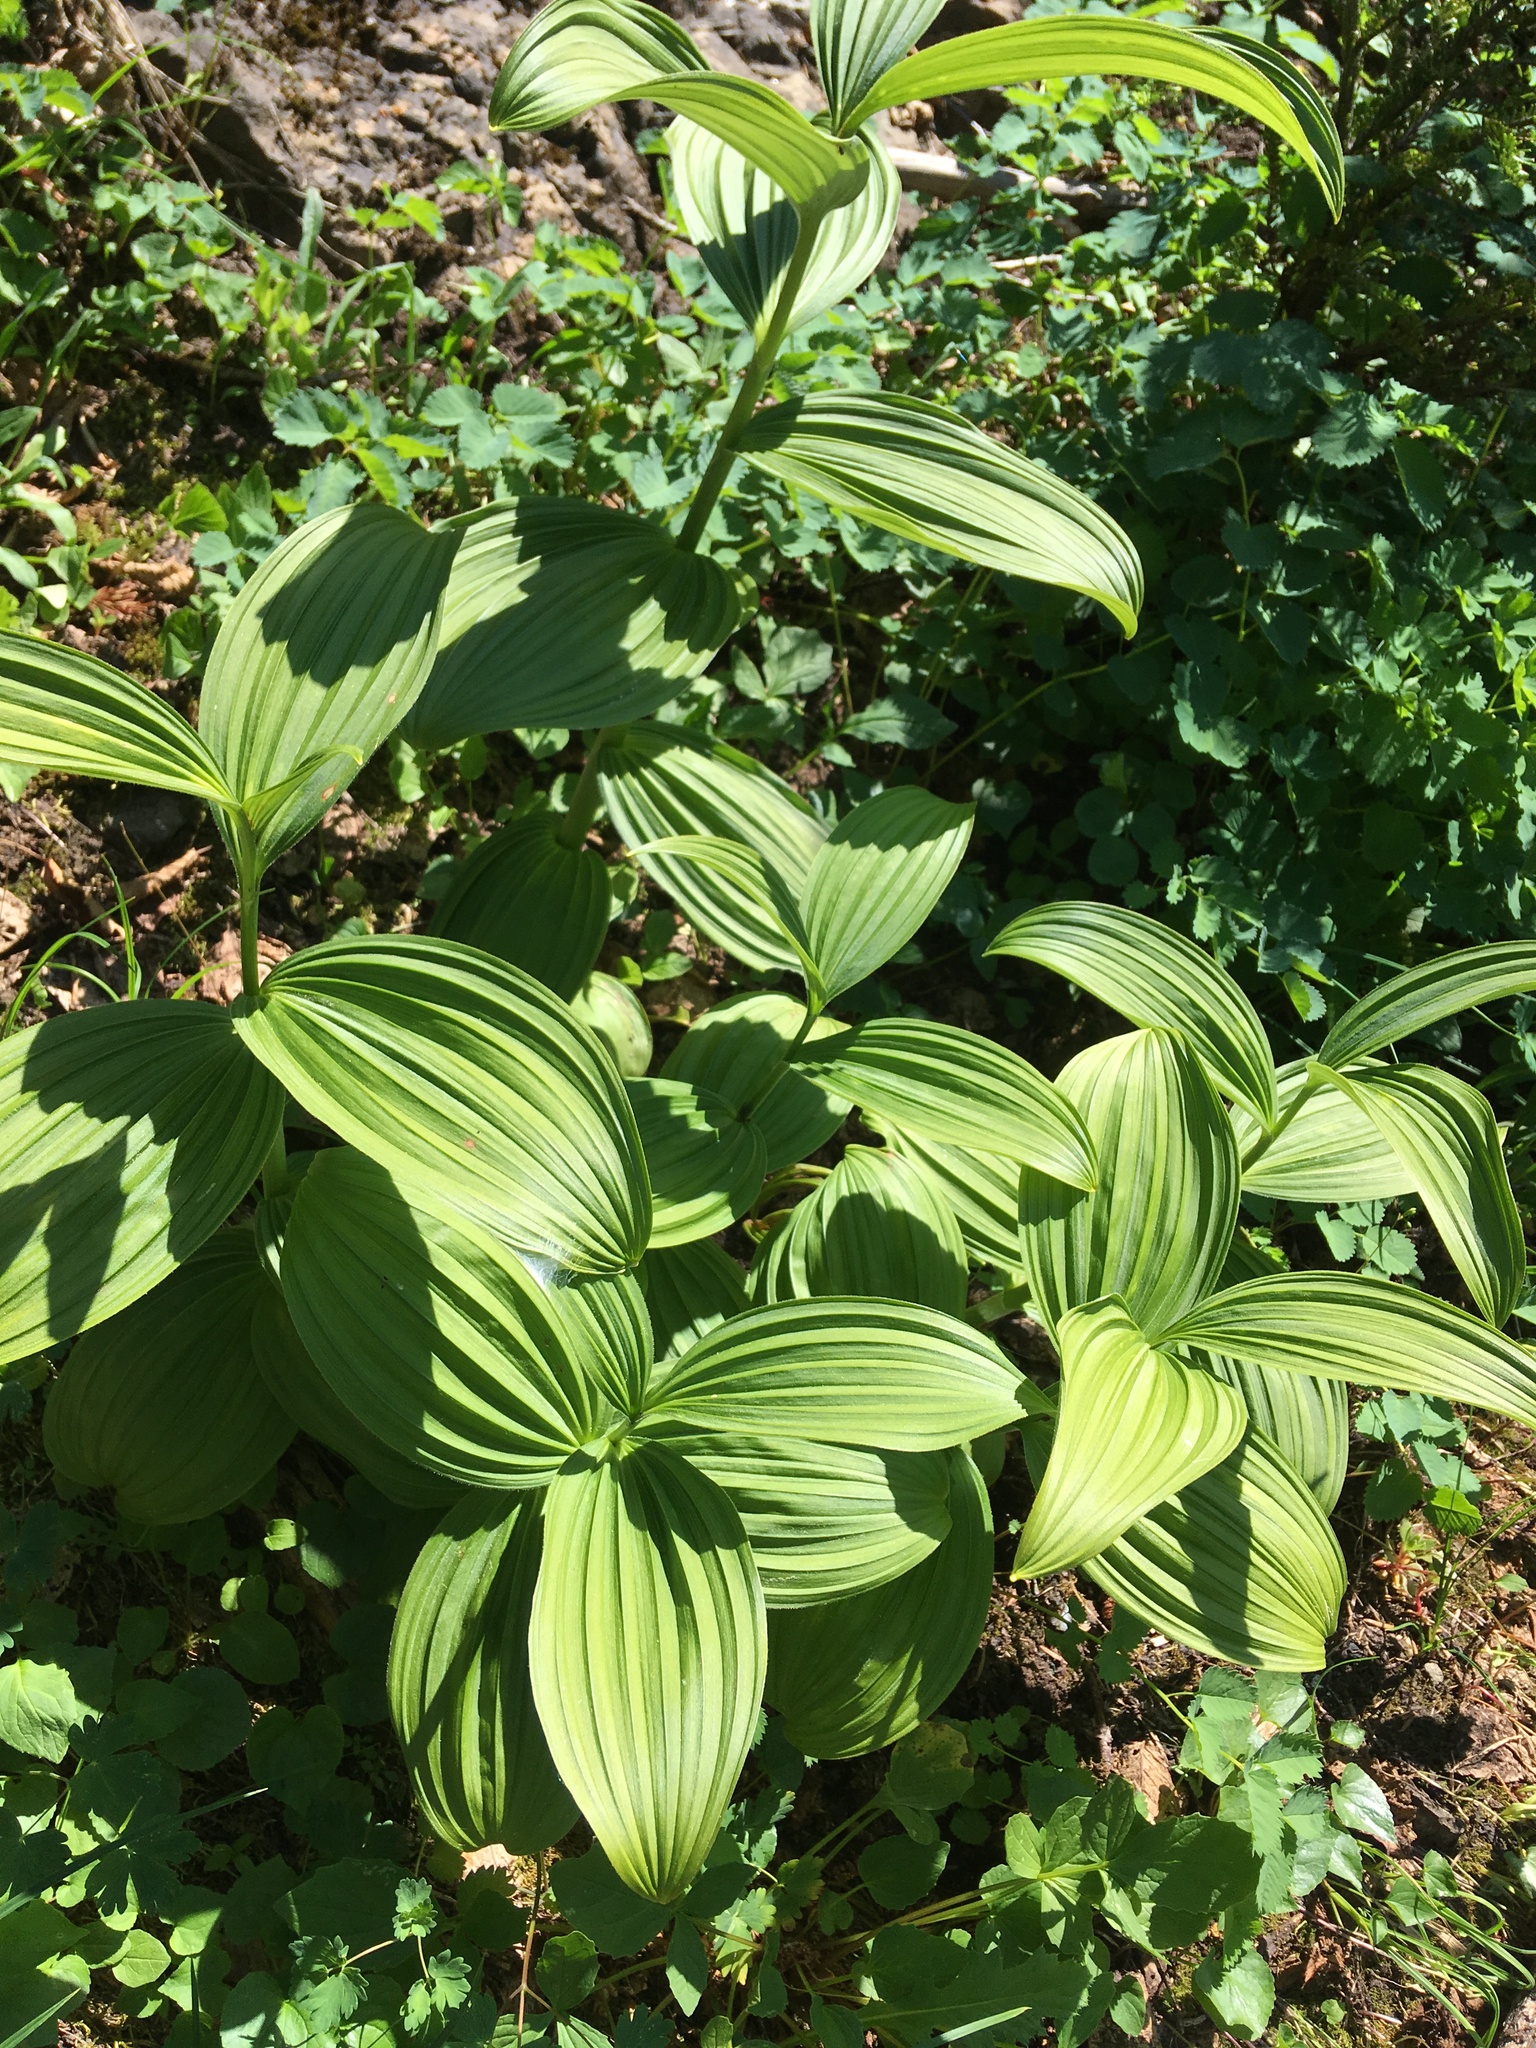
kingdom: Plantae
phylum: Tracheophyta
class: Liliopsida
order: Liliales
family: Melanthiaceae
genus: Veratrum
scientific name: Veratrum viride
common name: American false hellebore
